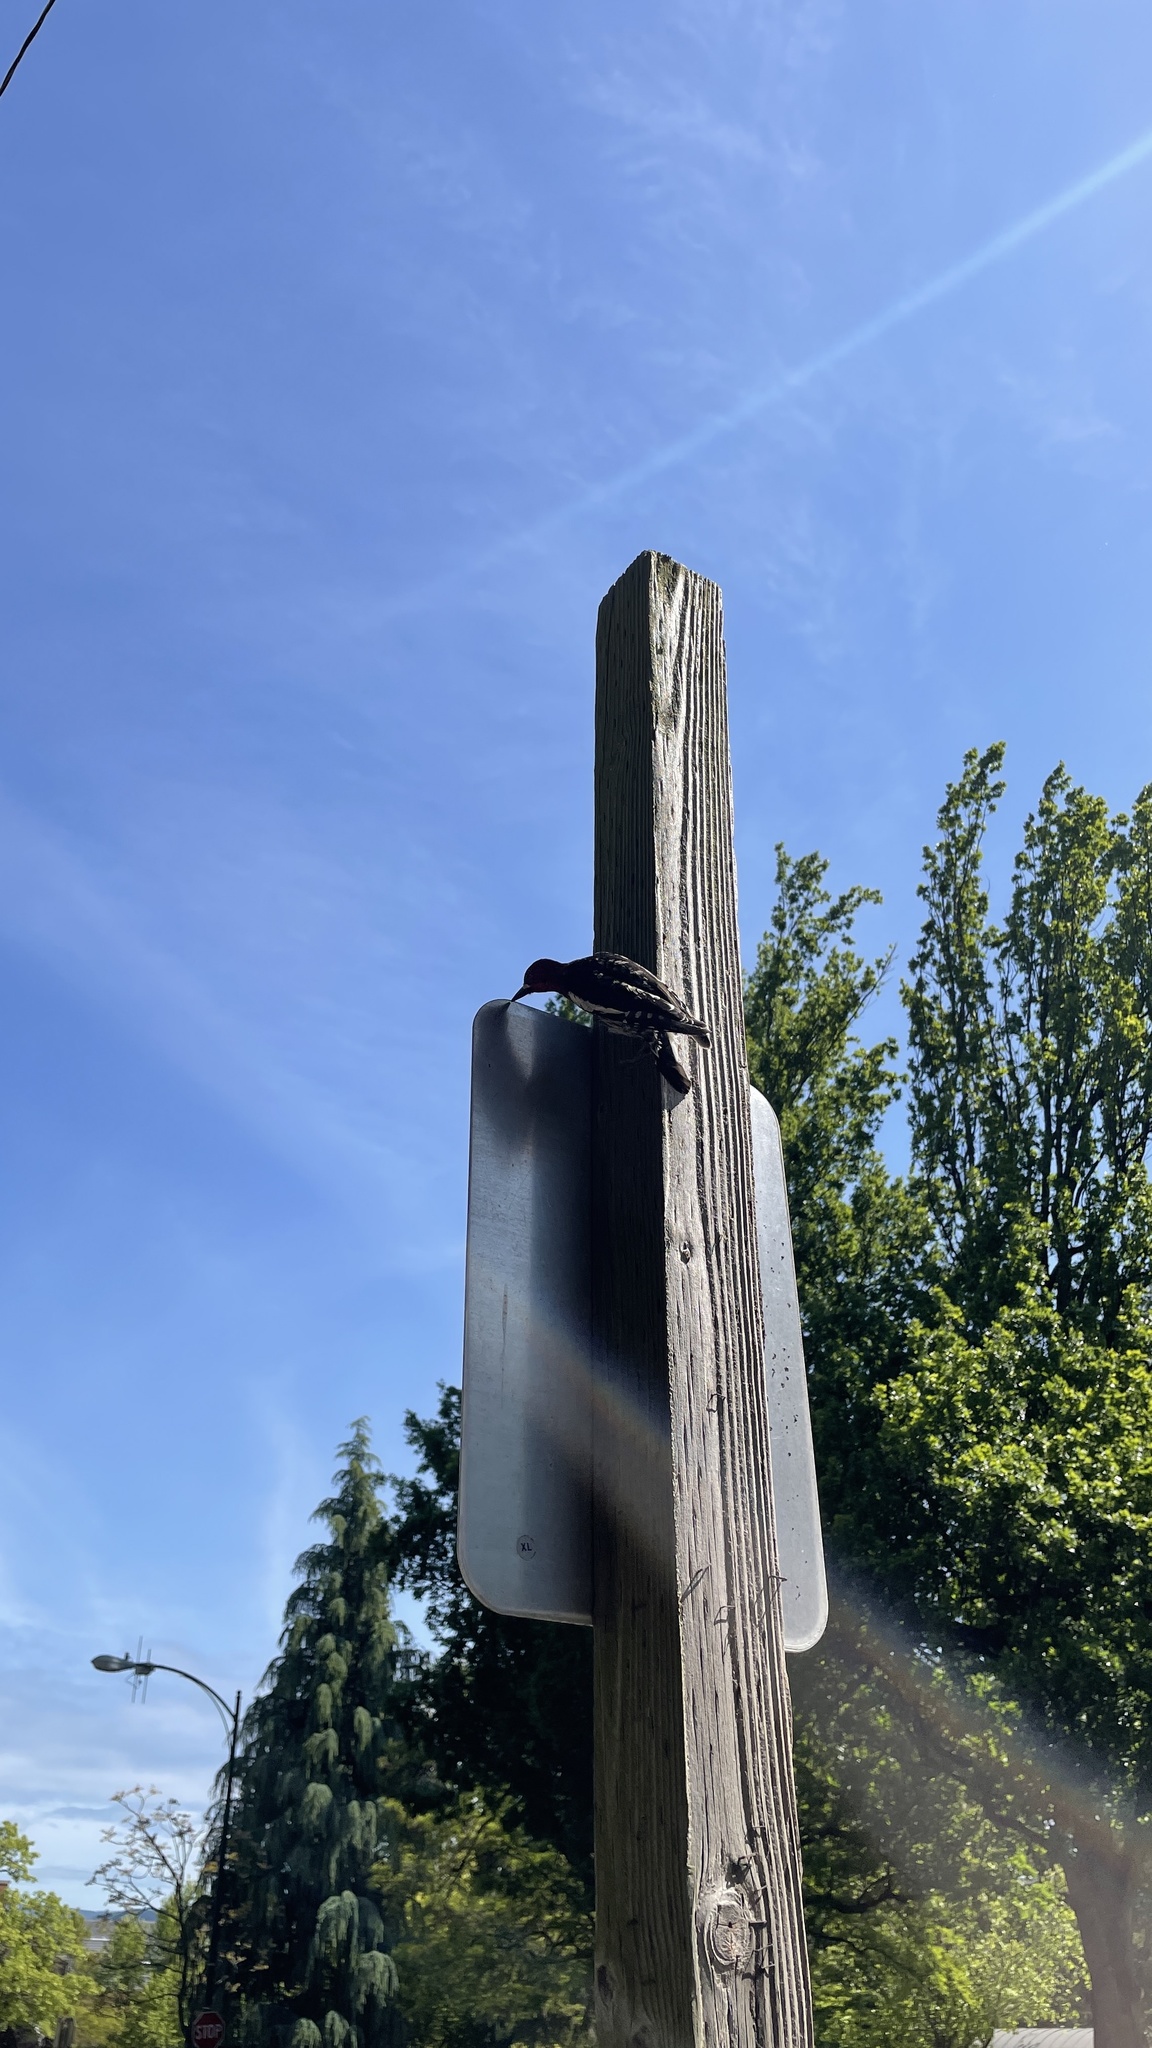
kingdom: Animalia
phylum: Chordata
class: Aves
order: Piciformes
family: Picidae
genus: Sphyrapicus
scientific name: Sphyrapicus ruber
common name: Red-breasted sapsucker
